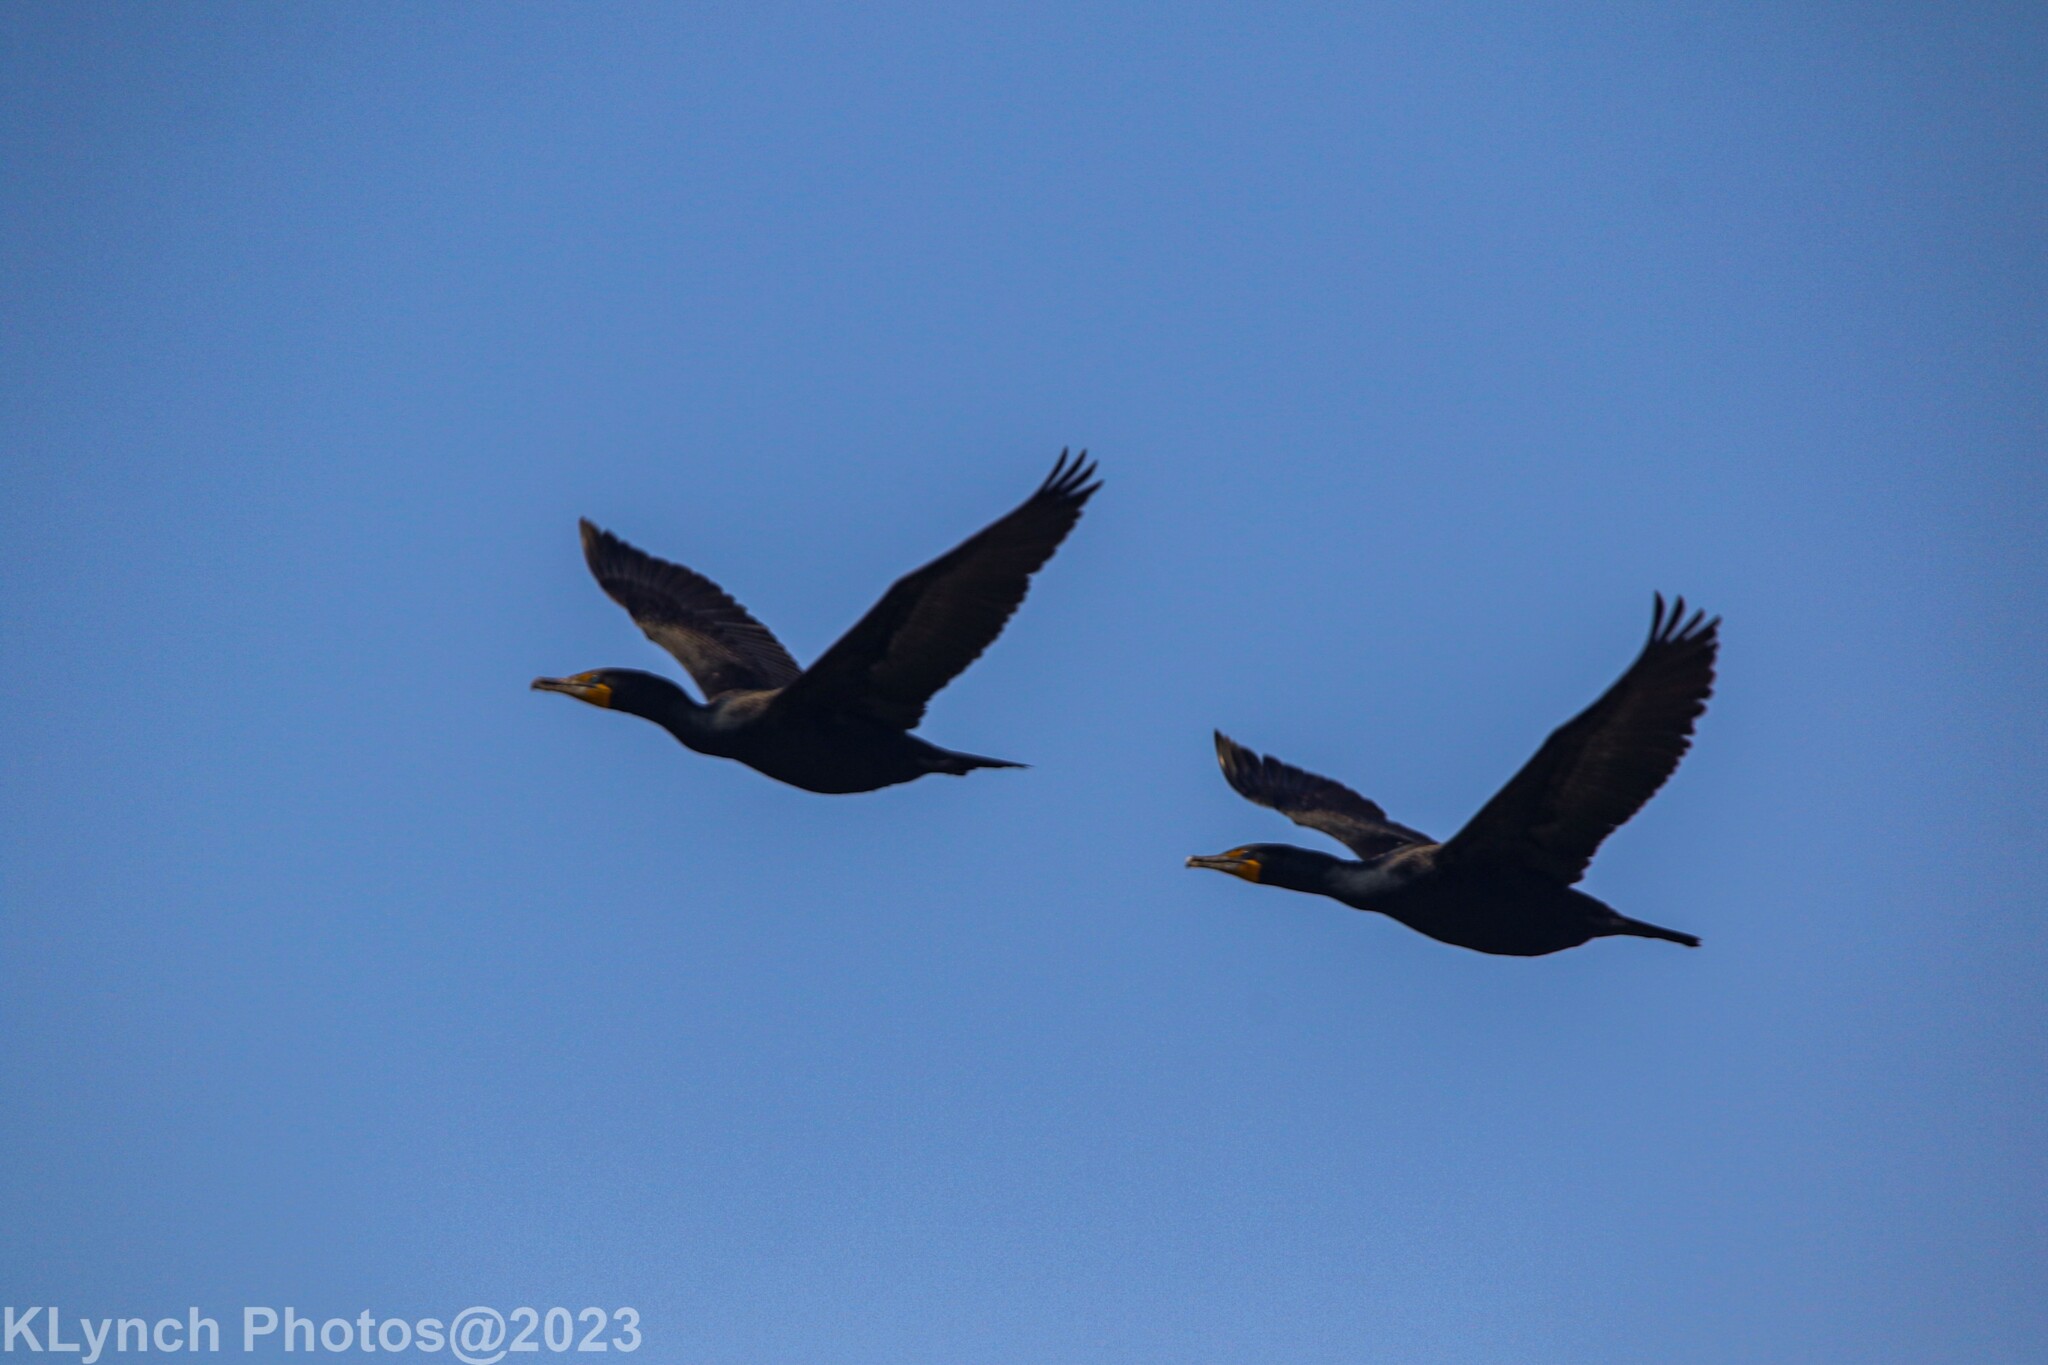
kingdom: Animalia
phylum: Chordata
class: Aves
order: Suliformes
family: Phalacrocoracidae
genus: Phalacrocorax
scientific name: Phalacrocorax auritus
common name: Double-crested cormorant
